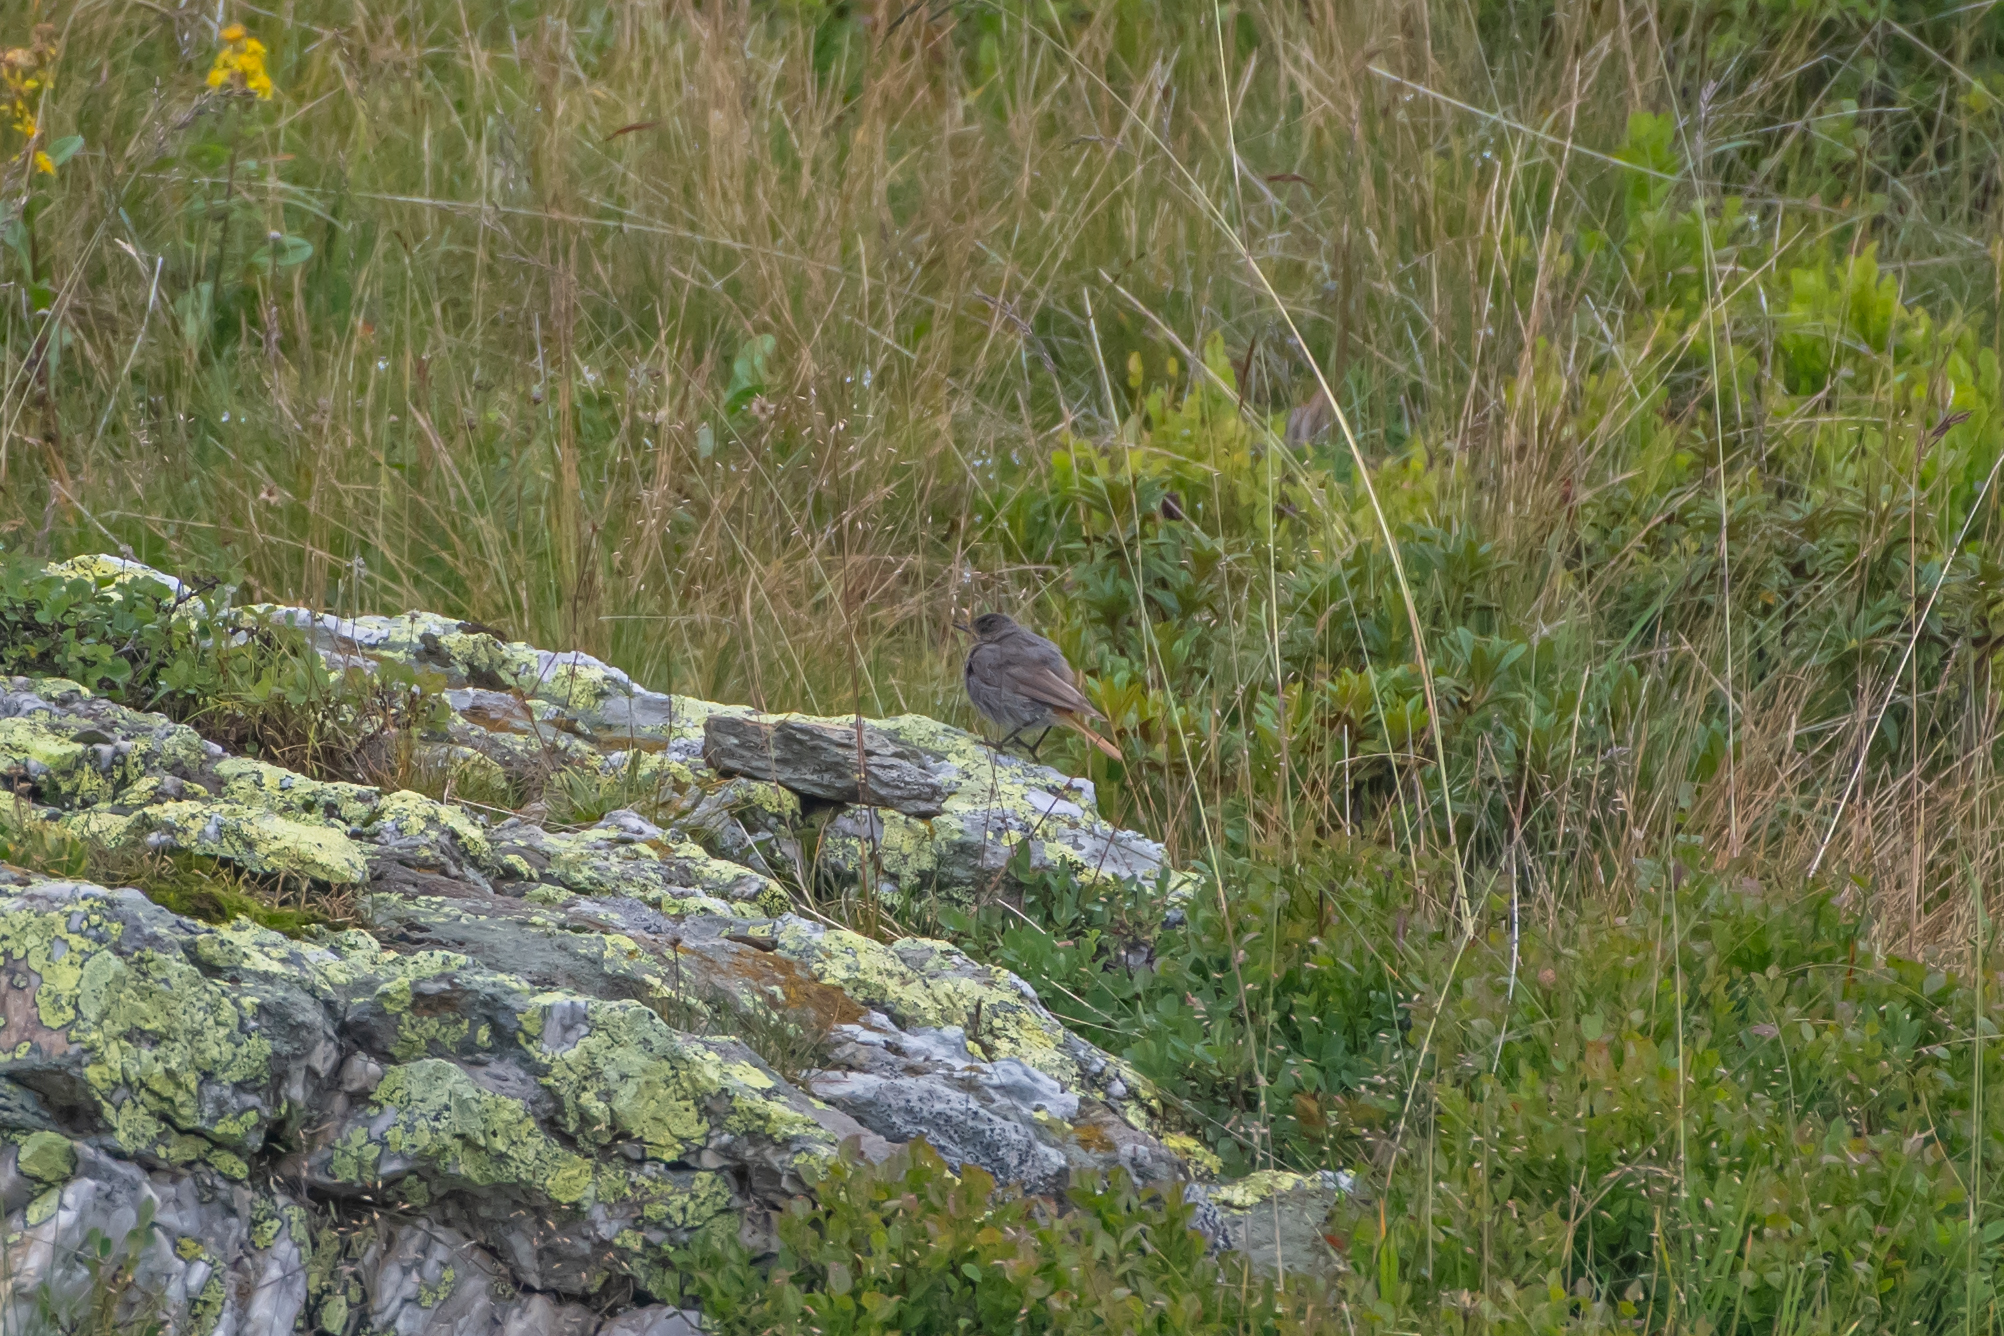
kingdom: Animalia
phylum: Chordata
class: Aves
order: Passeriformes
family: Muscicapidae
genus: Phoenicurus
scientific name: Phoenicurus ochruros
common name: Black redstart
